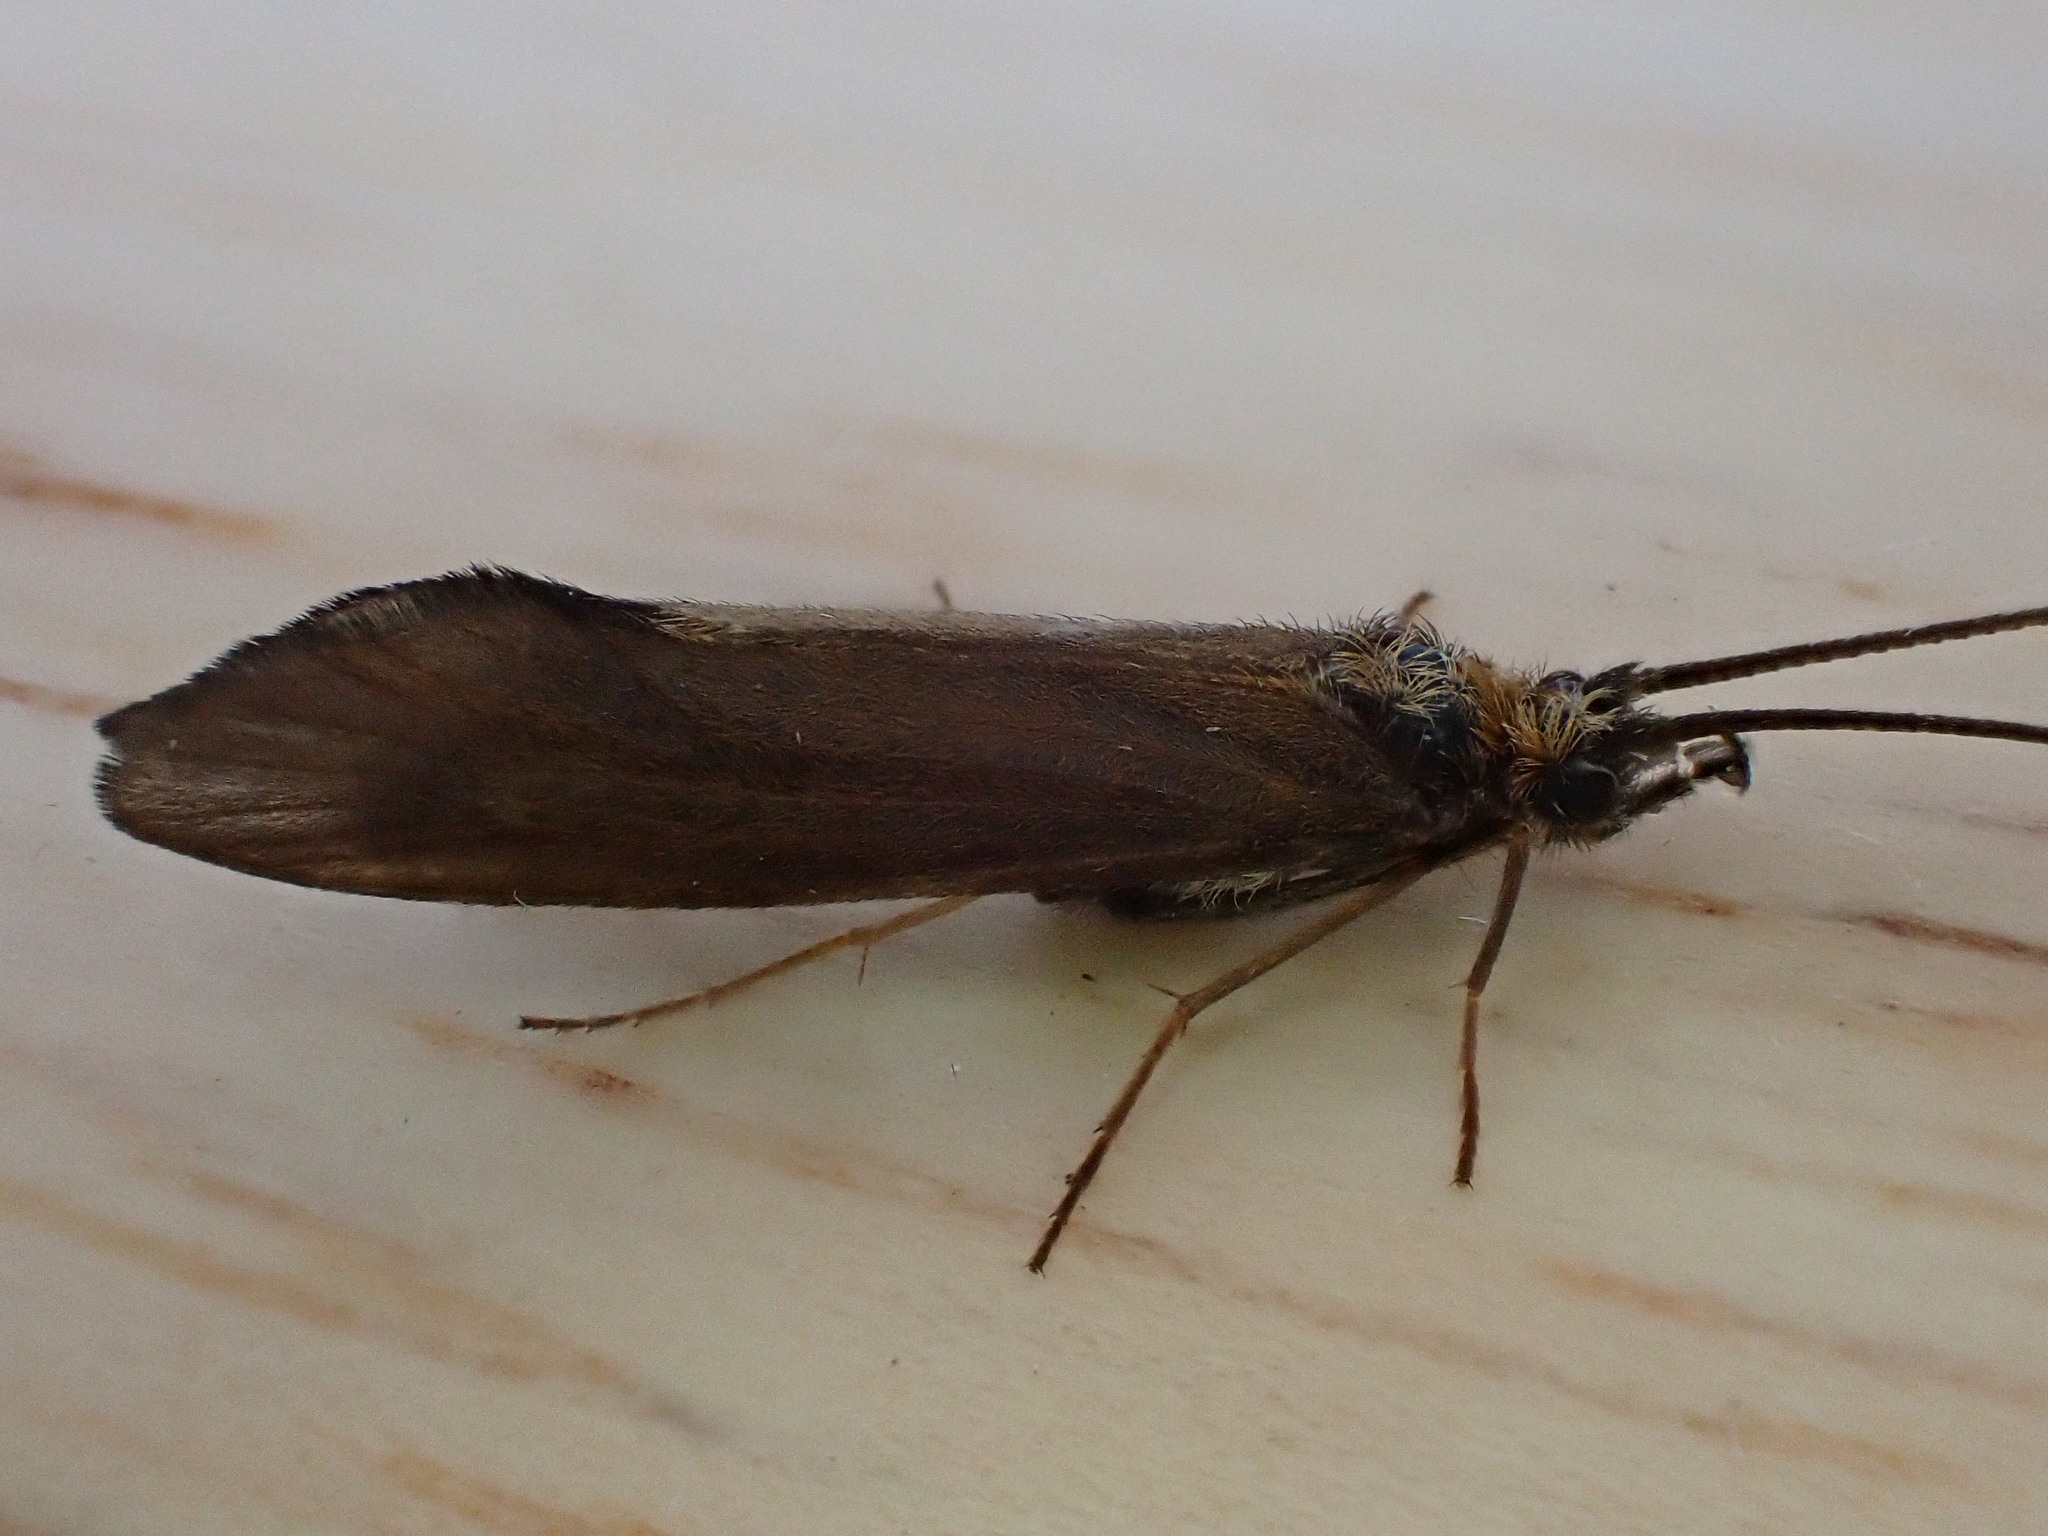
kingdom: Animalia
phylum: Arthropoda
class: Insecta
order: Trichoptera
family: Sericostomatidae
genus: Sericostoma
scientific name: Sericostoma personatum
